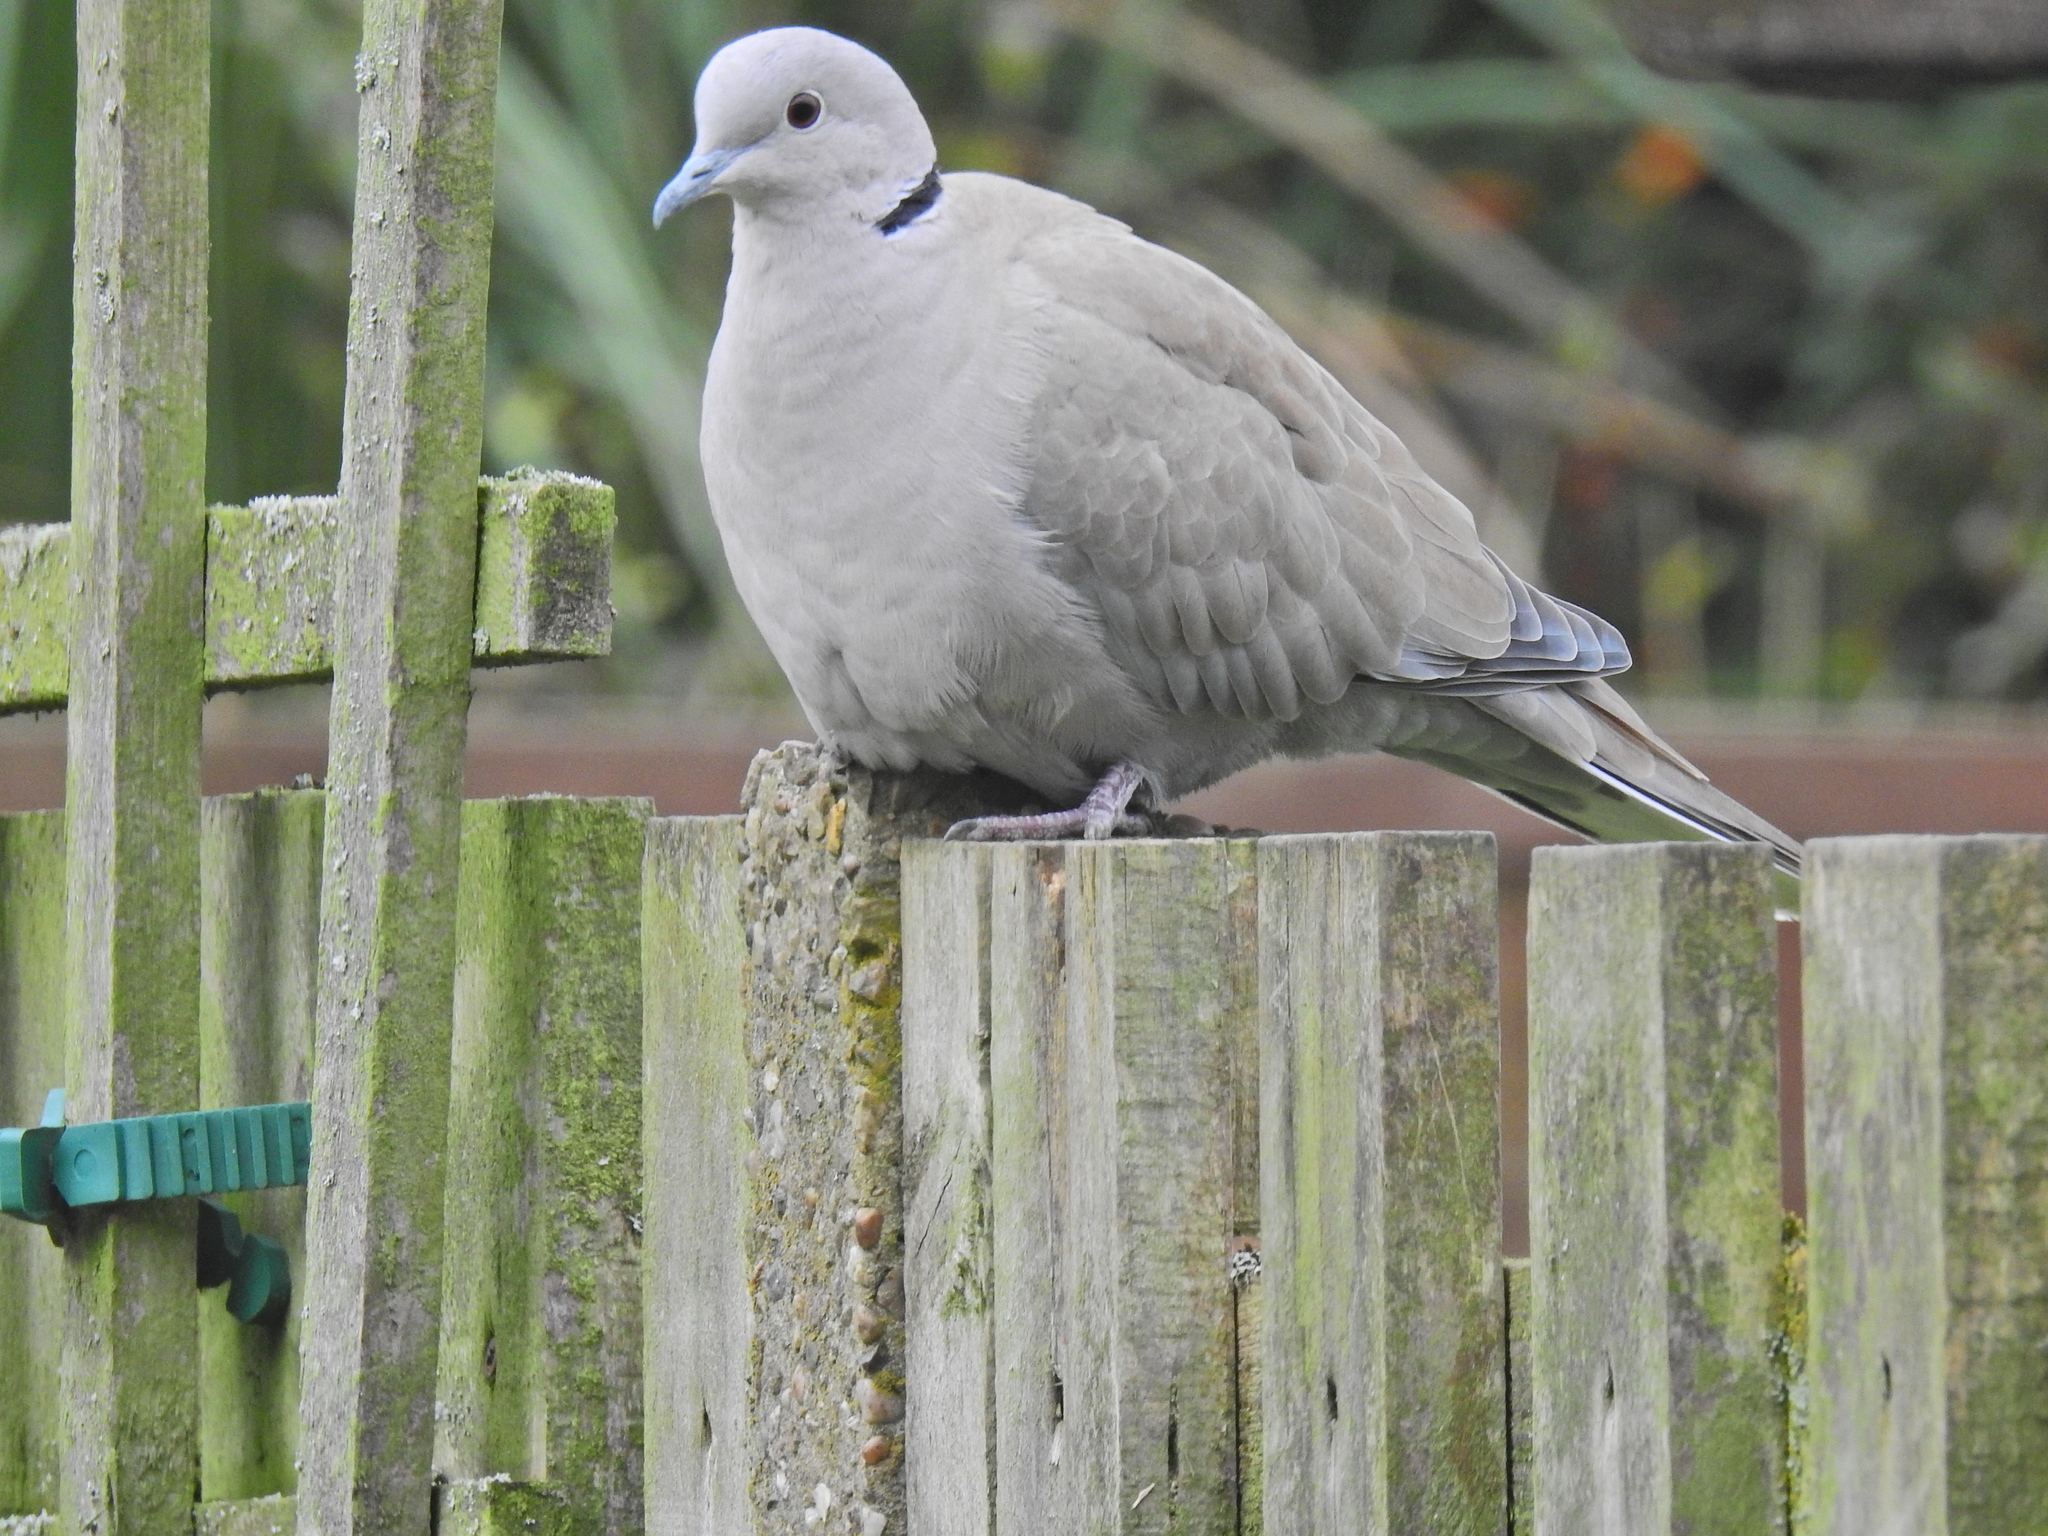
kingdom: Animalia
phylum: Chordata
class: Aves
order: Columbiformes
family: Columbidae
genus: Streptopelia
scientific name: Streptopelia decaocto
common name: Eurasian collared dove
